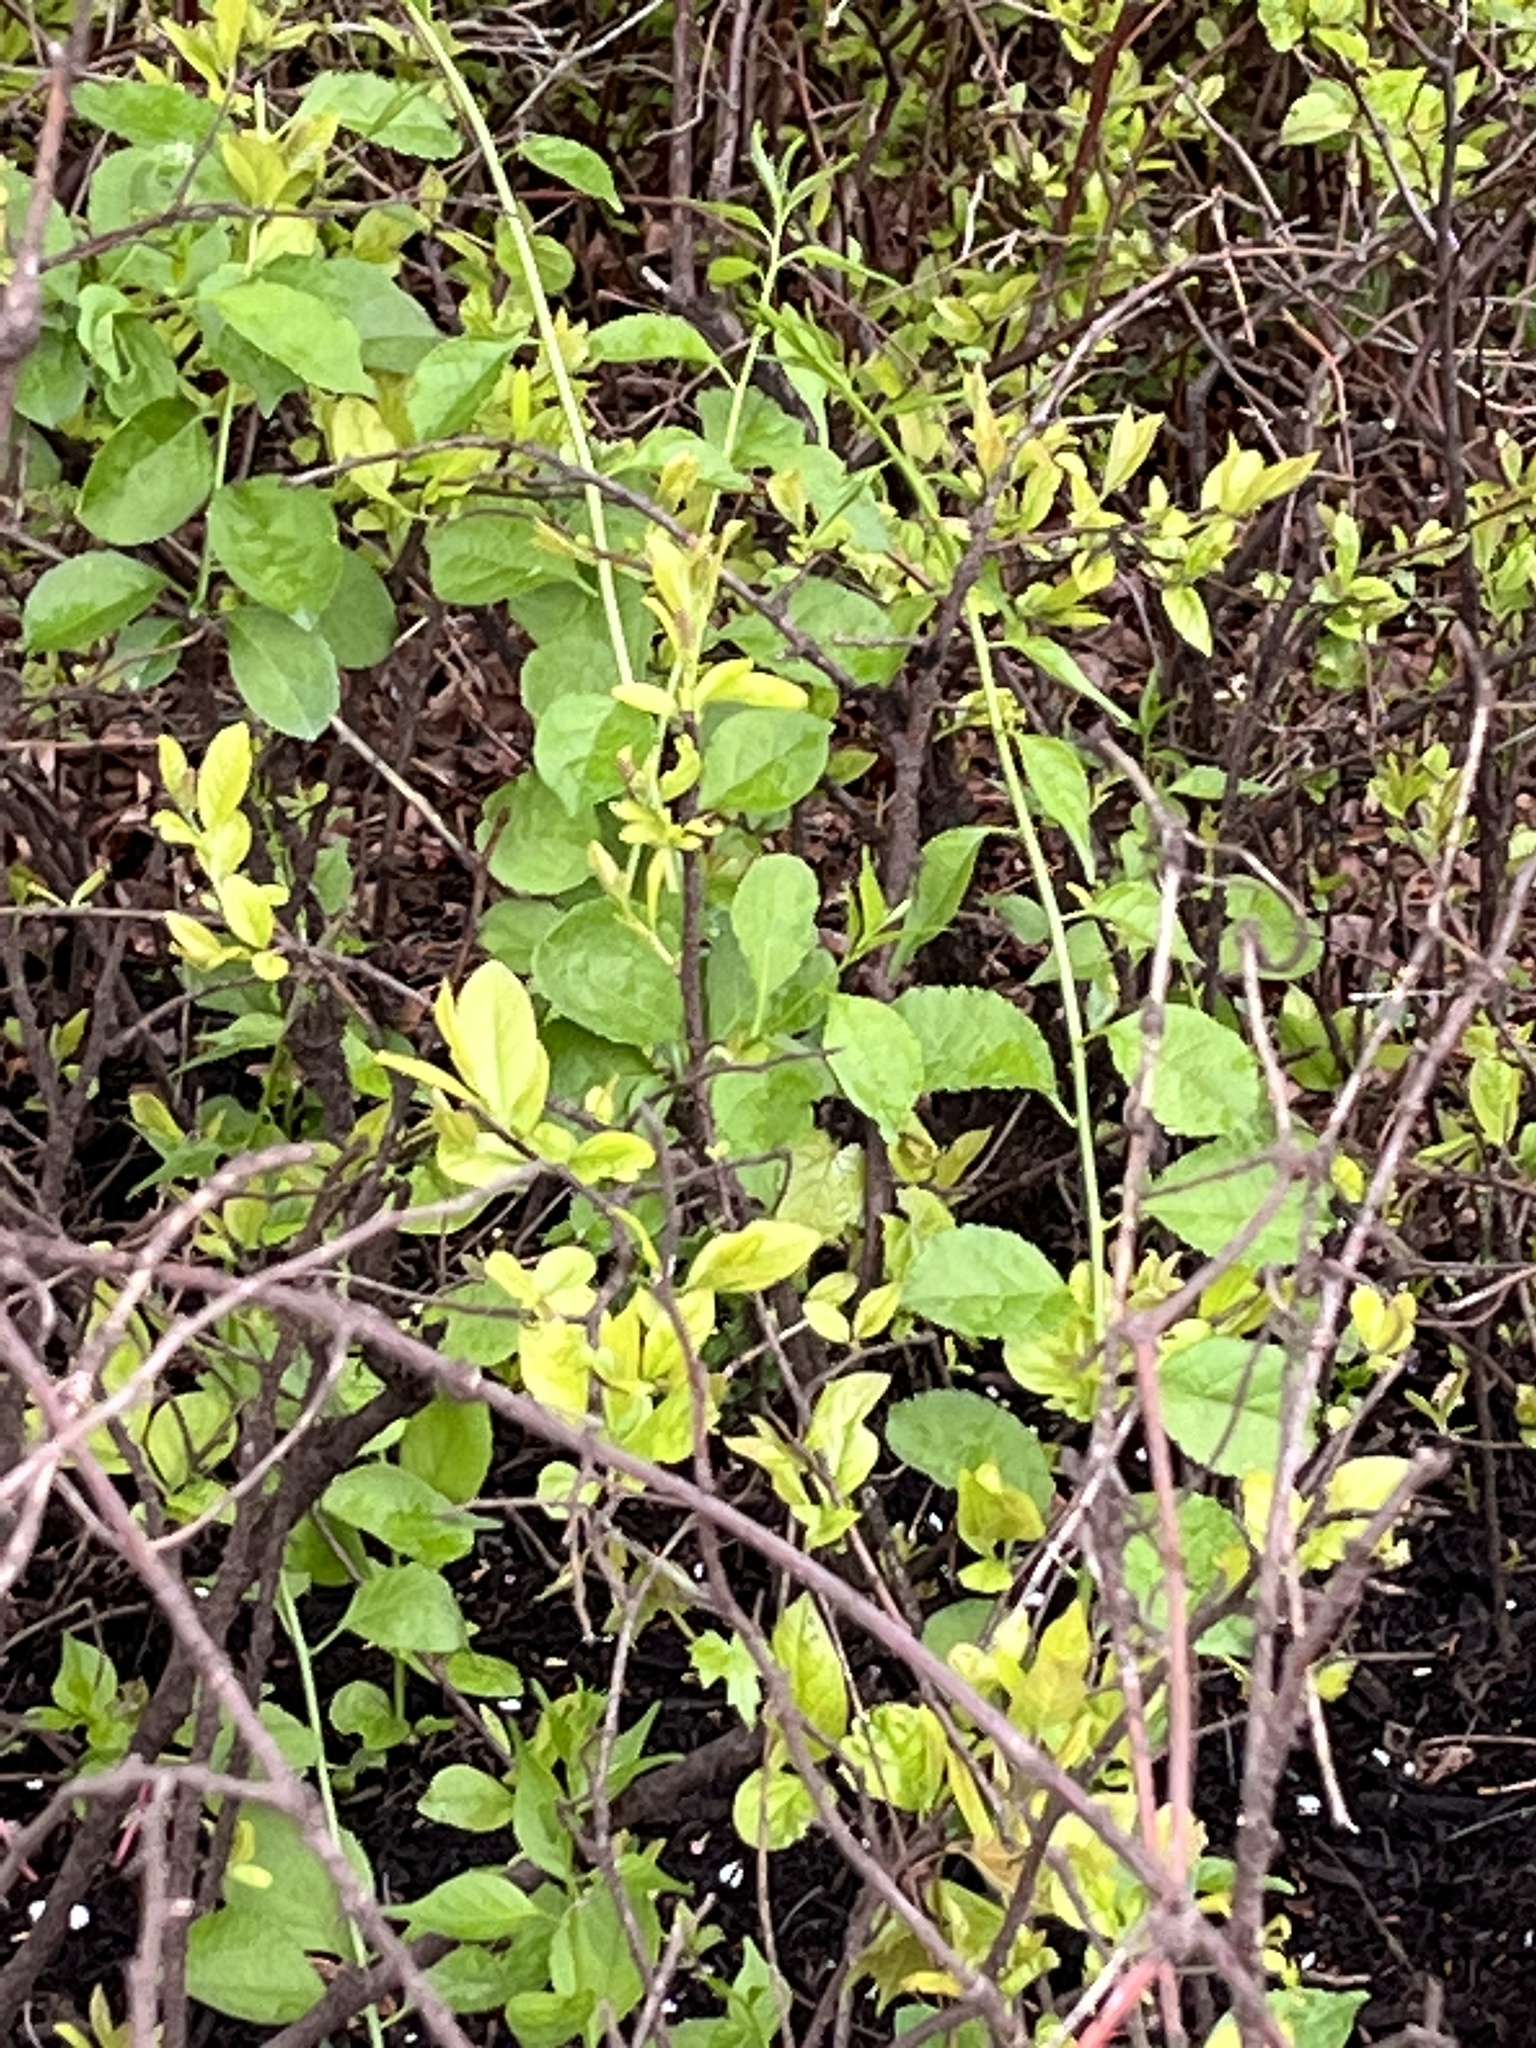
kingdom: Plantae
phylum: Tracheophyta
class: Magnoliopsida
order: Celastrales
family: Celastraceae
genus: Celastrus
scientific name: Celastrus orbiculatus
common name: Oriental bittersweet
